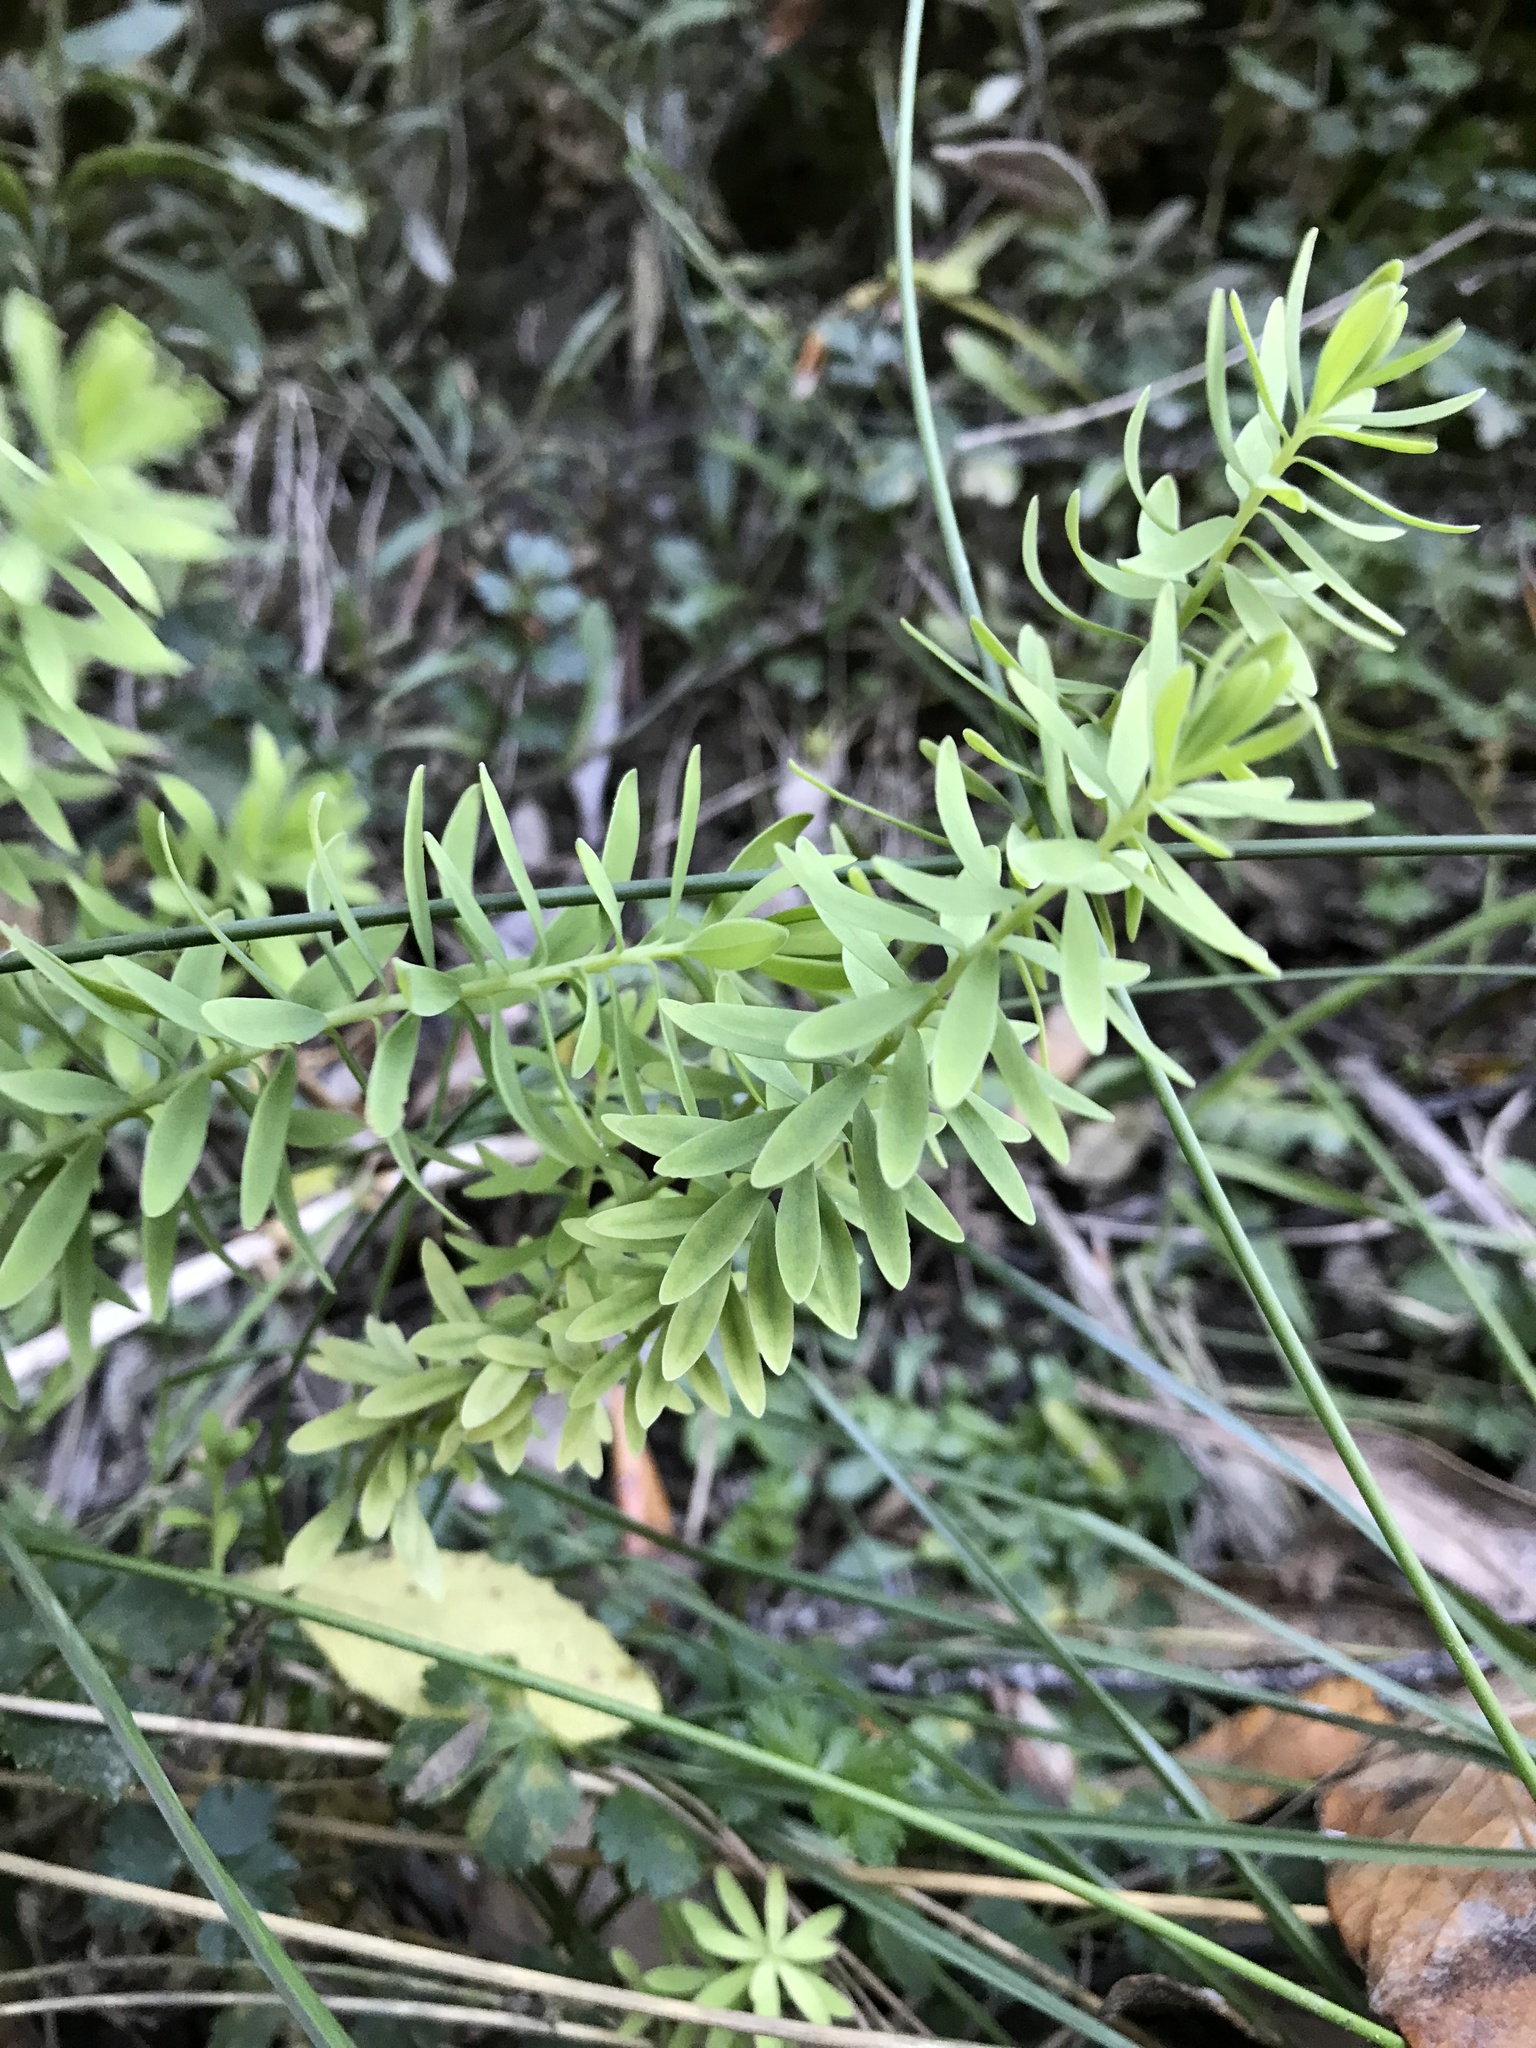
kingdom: Plantae
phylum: Tracheophyta
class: Magnoliopsida
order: Malpighiales
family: Linaceae
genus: Linum
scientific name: Linum monogynum
